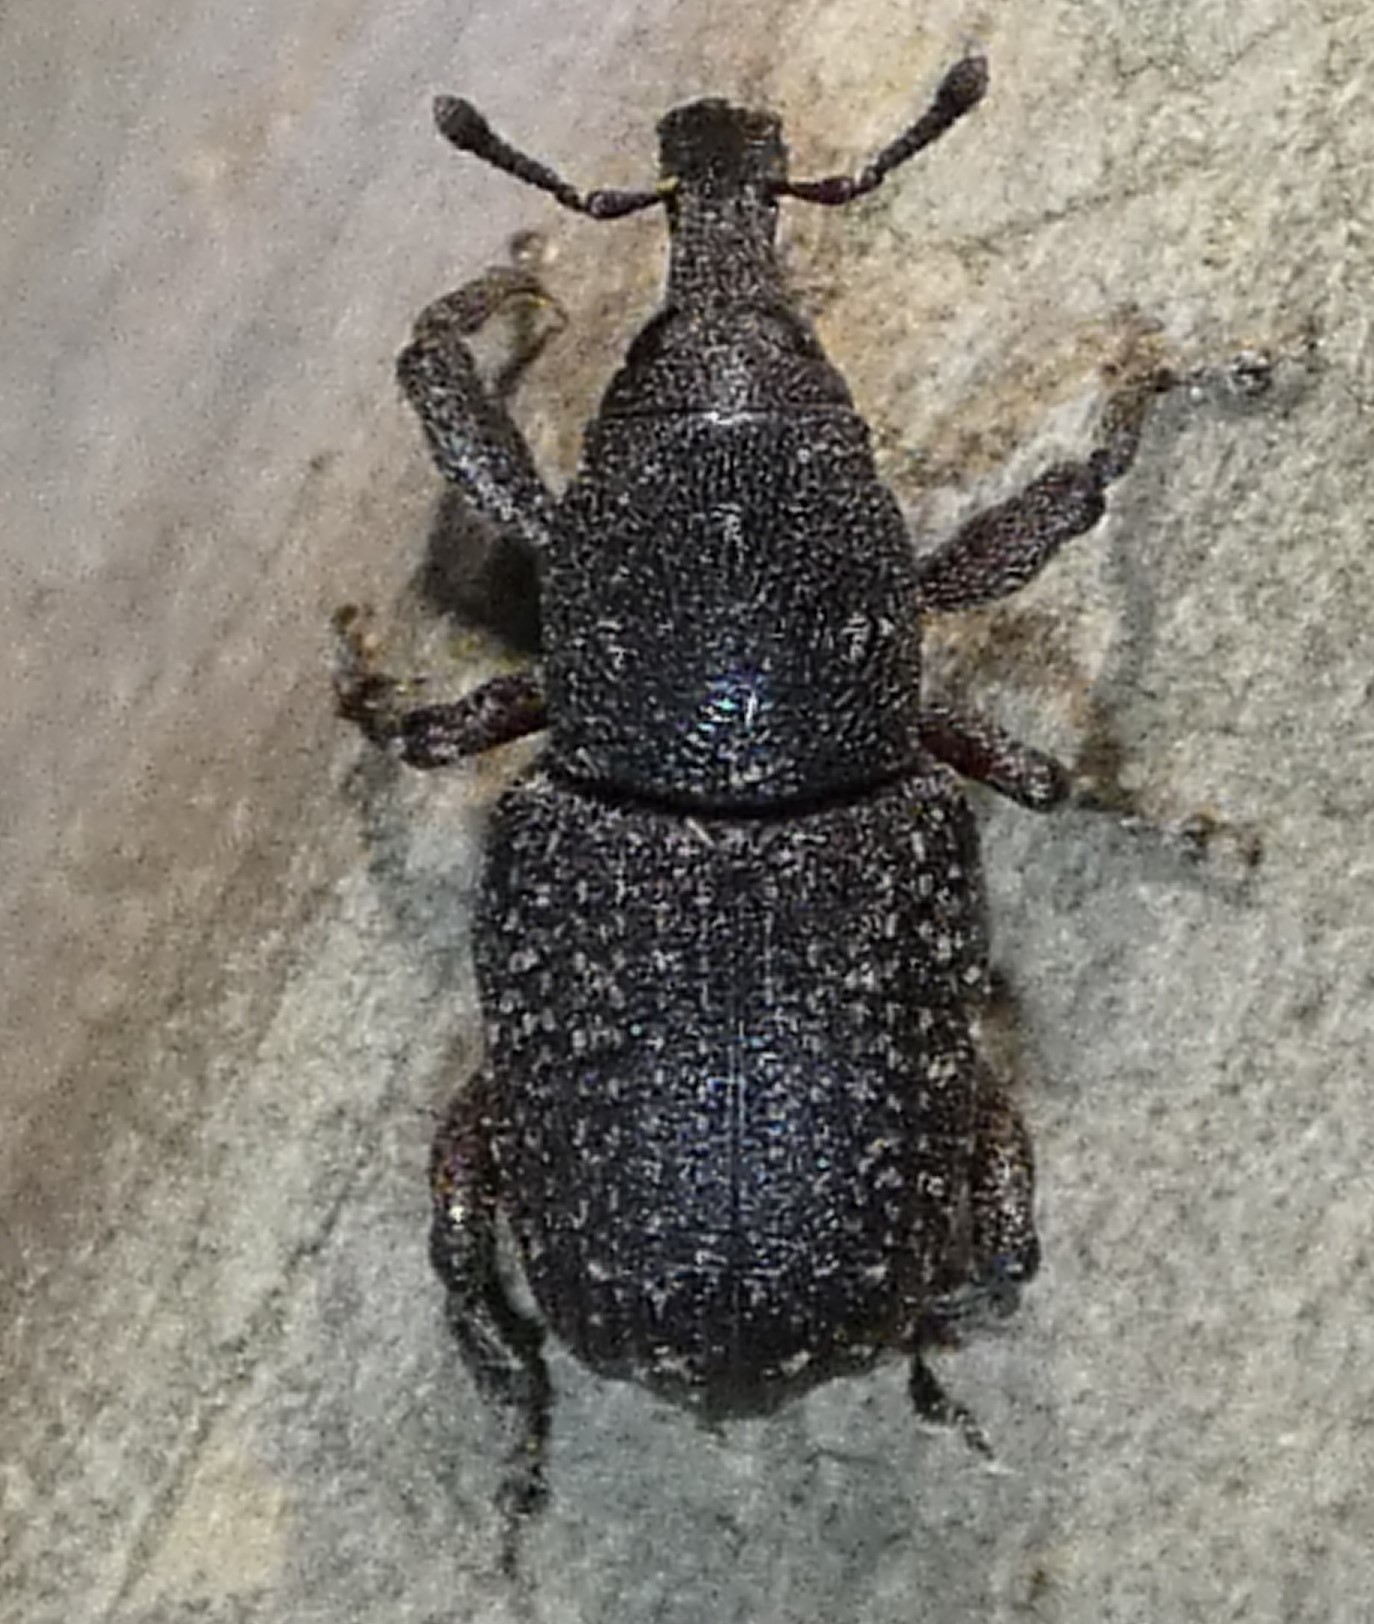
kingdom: Animalia
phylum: Arthropoda
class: Insecta
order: Coleoptera
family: Curculionidae
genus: Pachylobius
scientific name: Pachylobius picivorus
